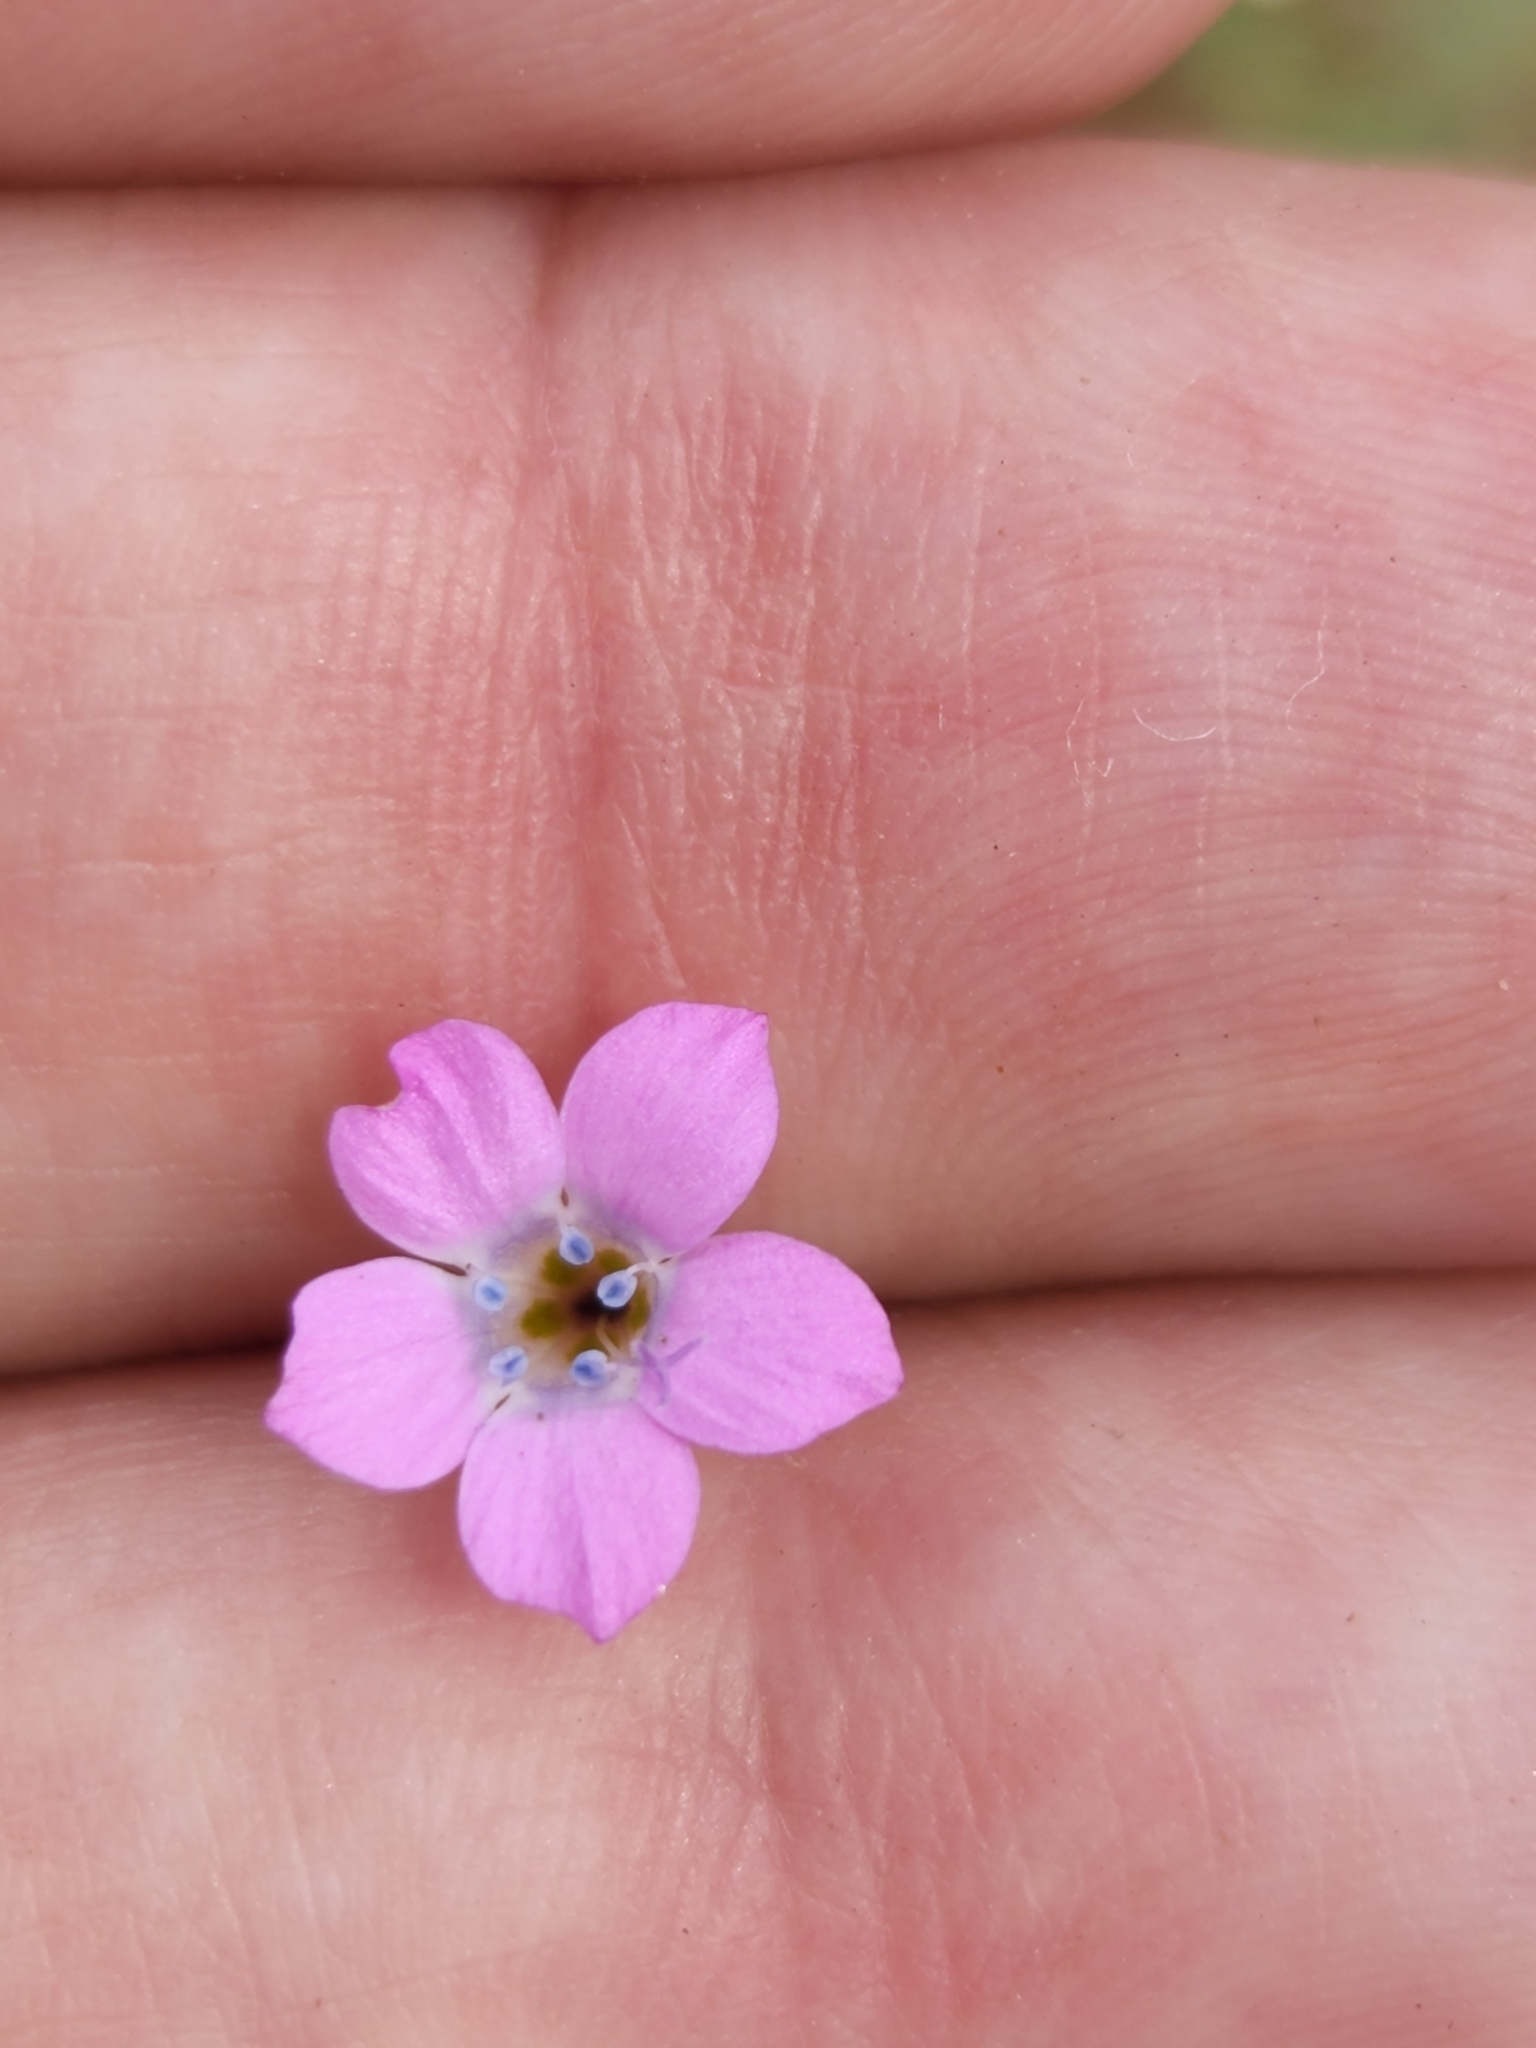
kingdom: Plantae
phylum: Tracheophyta
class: Magnoliopsida
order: Ericales
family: Polemoniaceae
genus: Saltugilia
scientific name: Saltugilia splendens
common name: Grinnell's gilia
